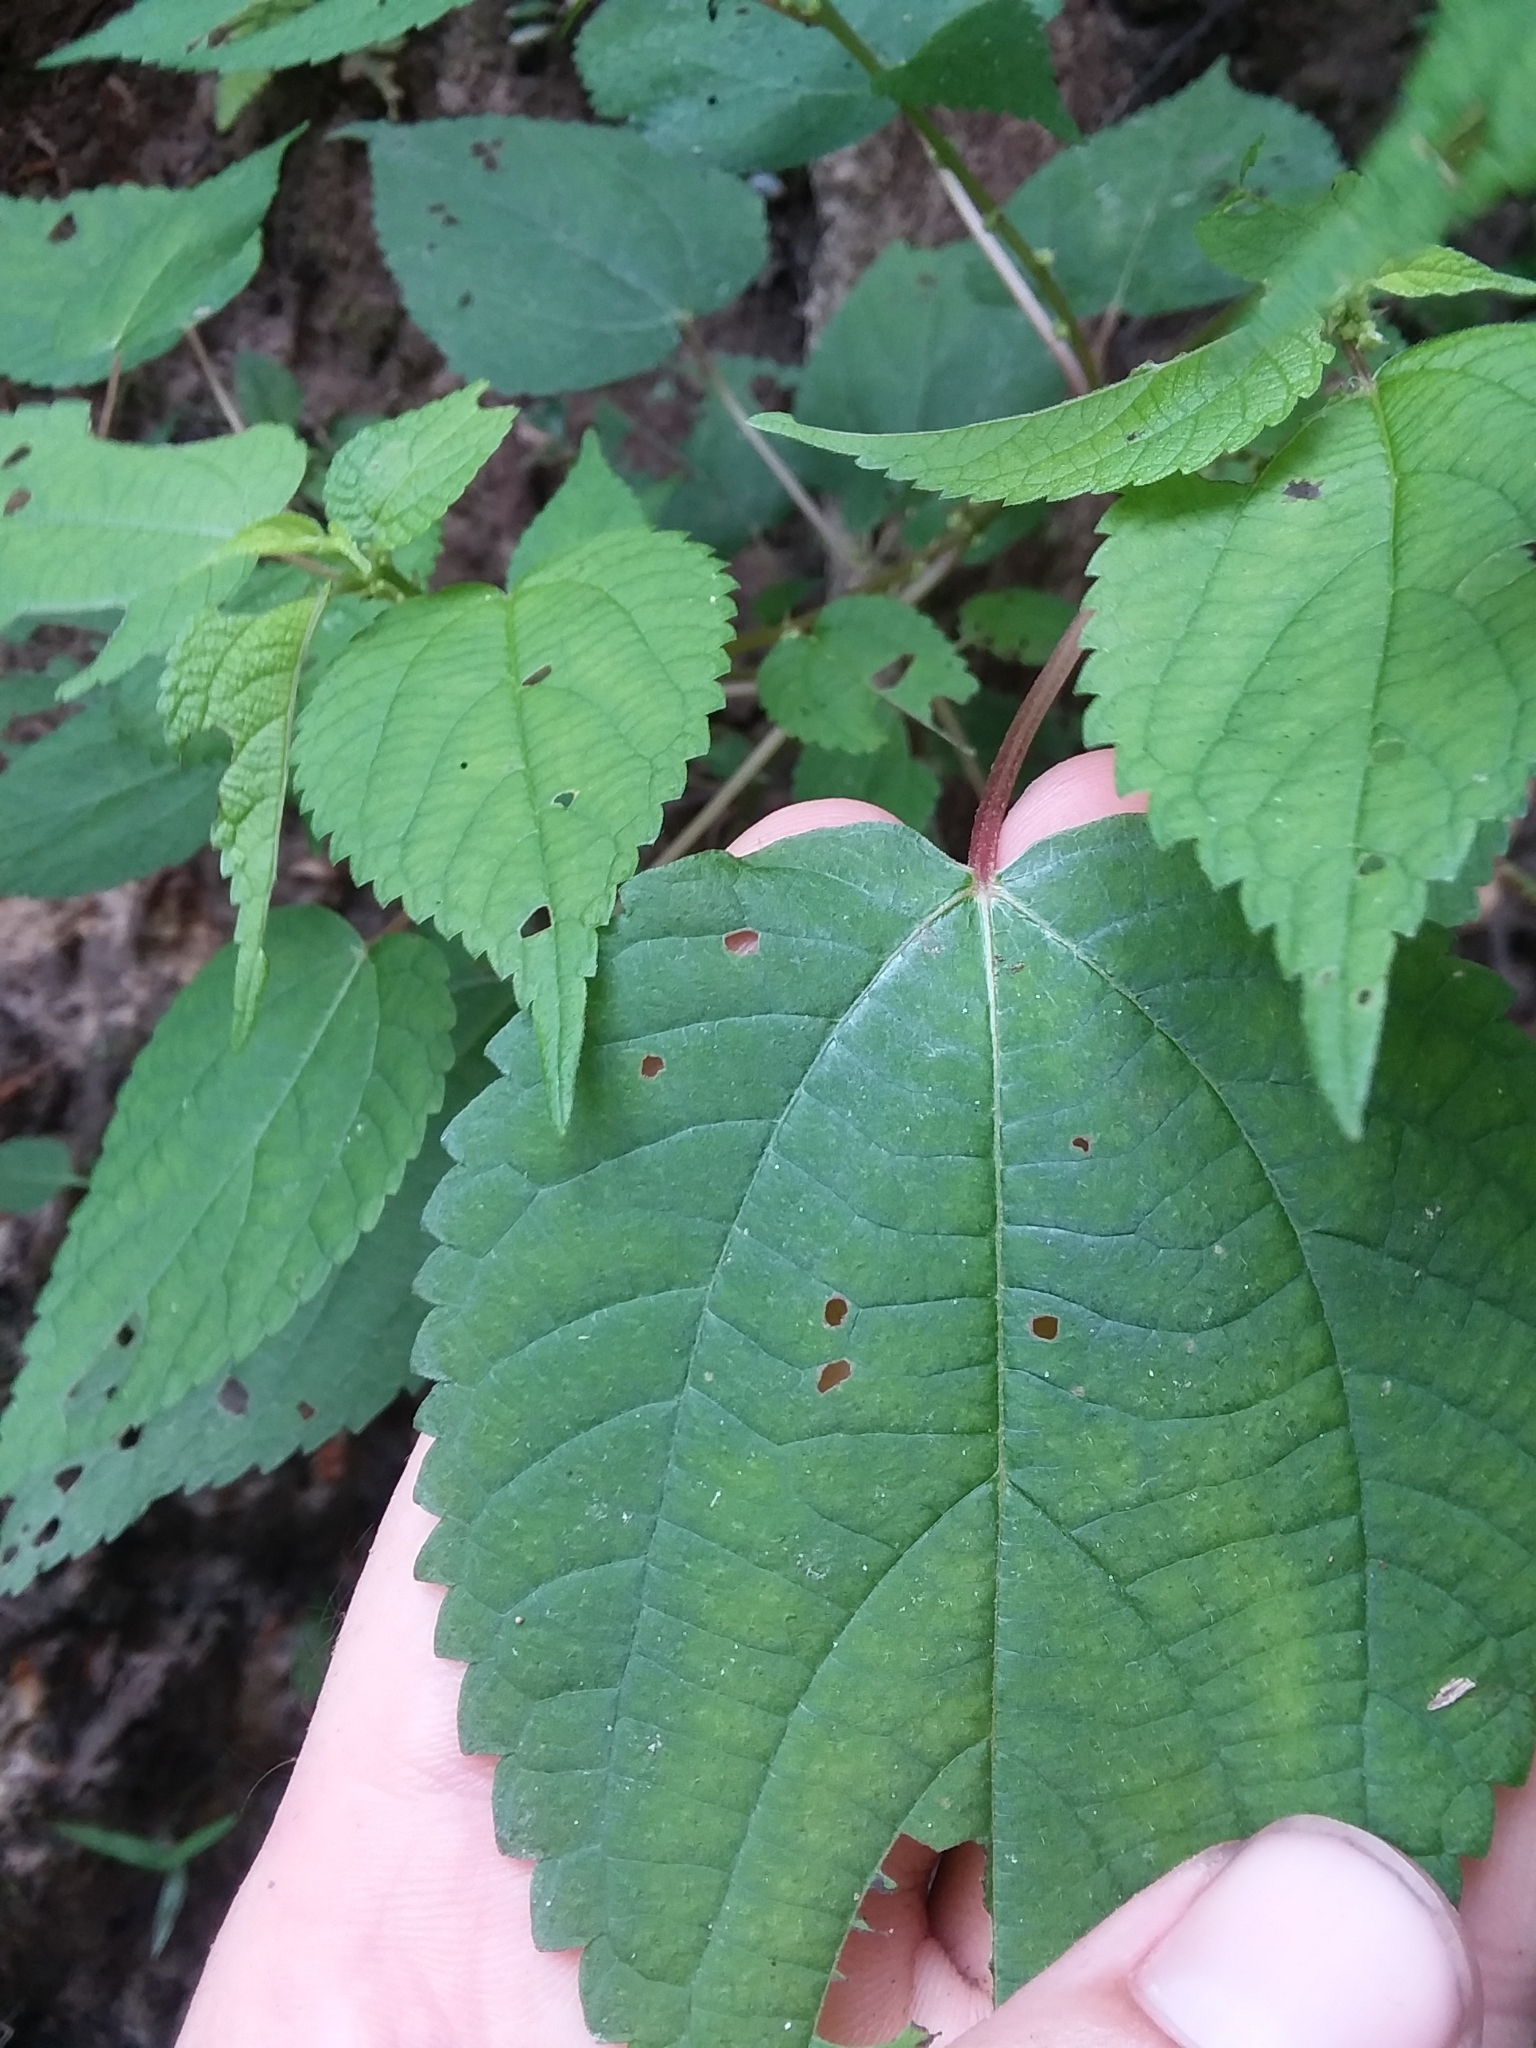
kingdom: Plantae
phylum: Tracheophyta
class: Magnoliopsida
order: Rosales
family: Urticaceae
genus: Boehmeria
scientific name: Boehmeria cylindrica
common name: Bog-hemp
